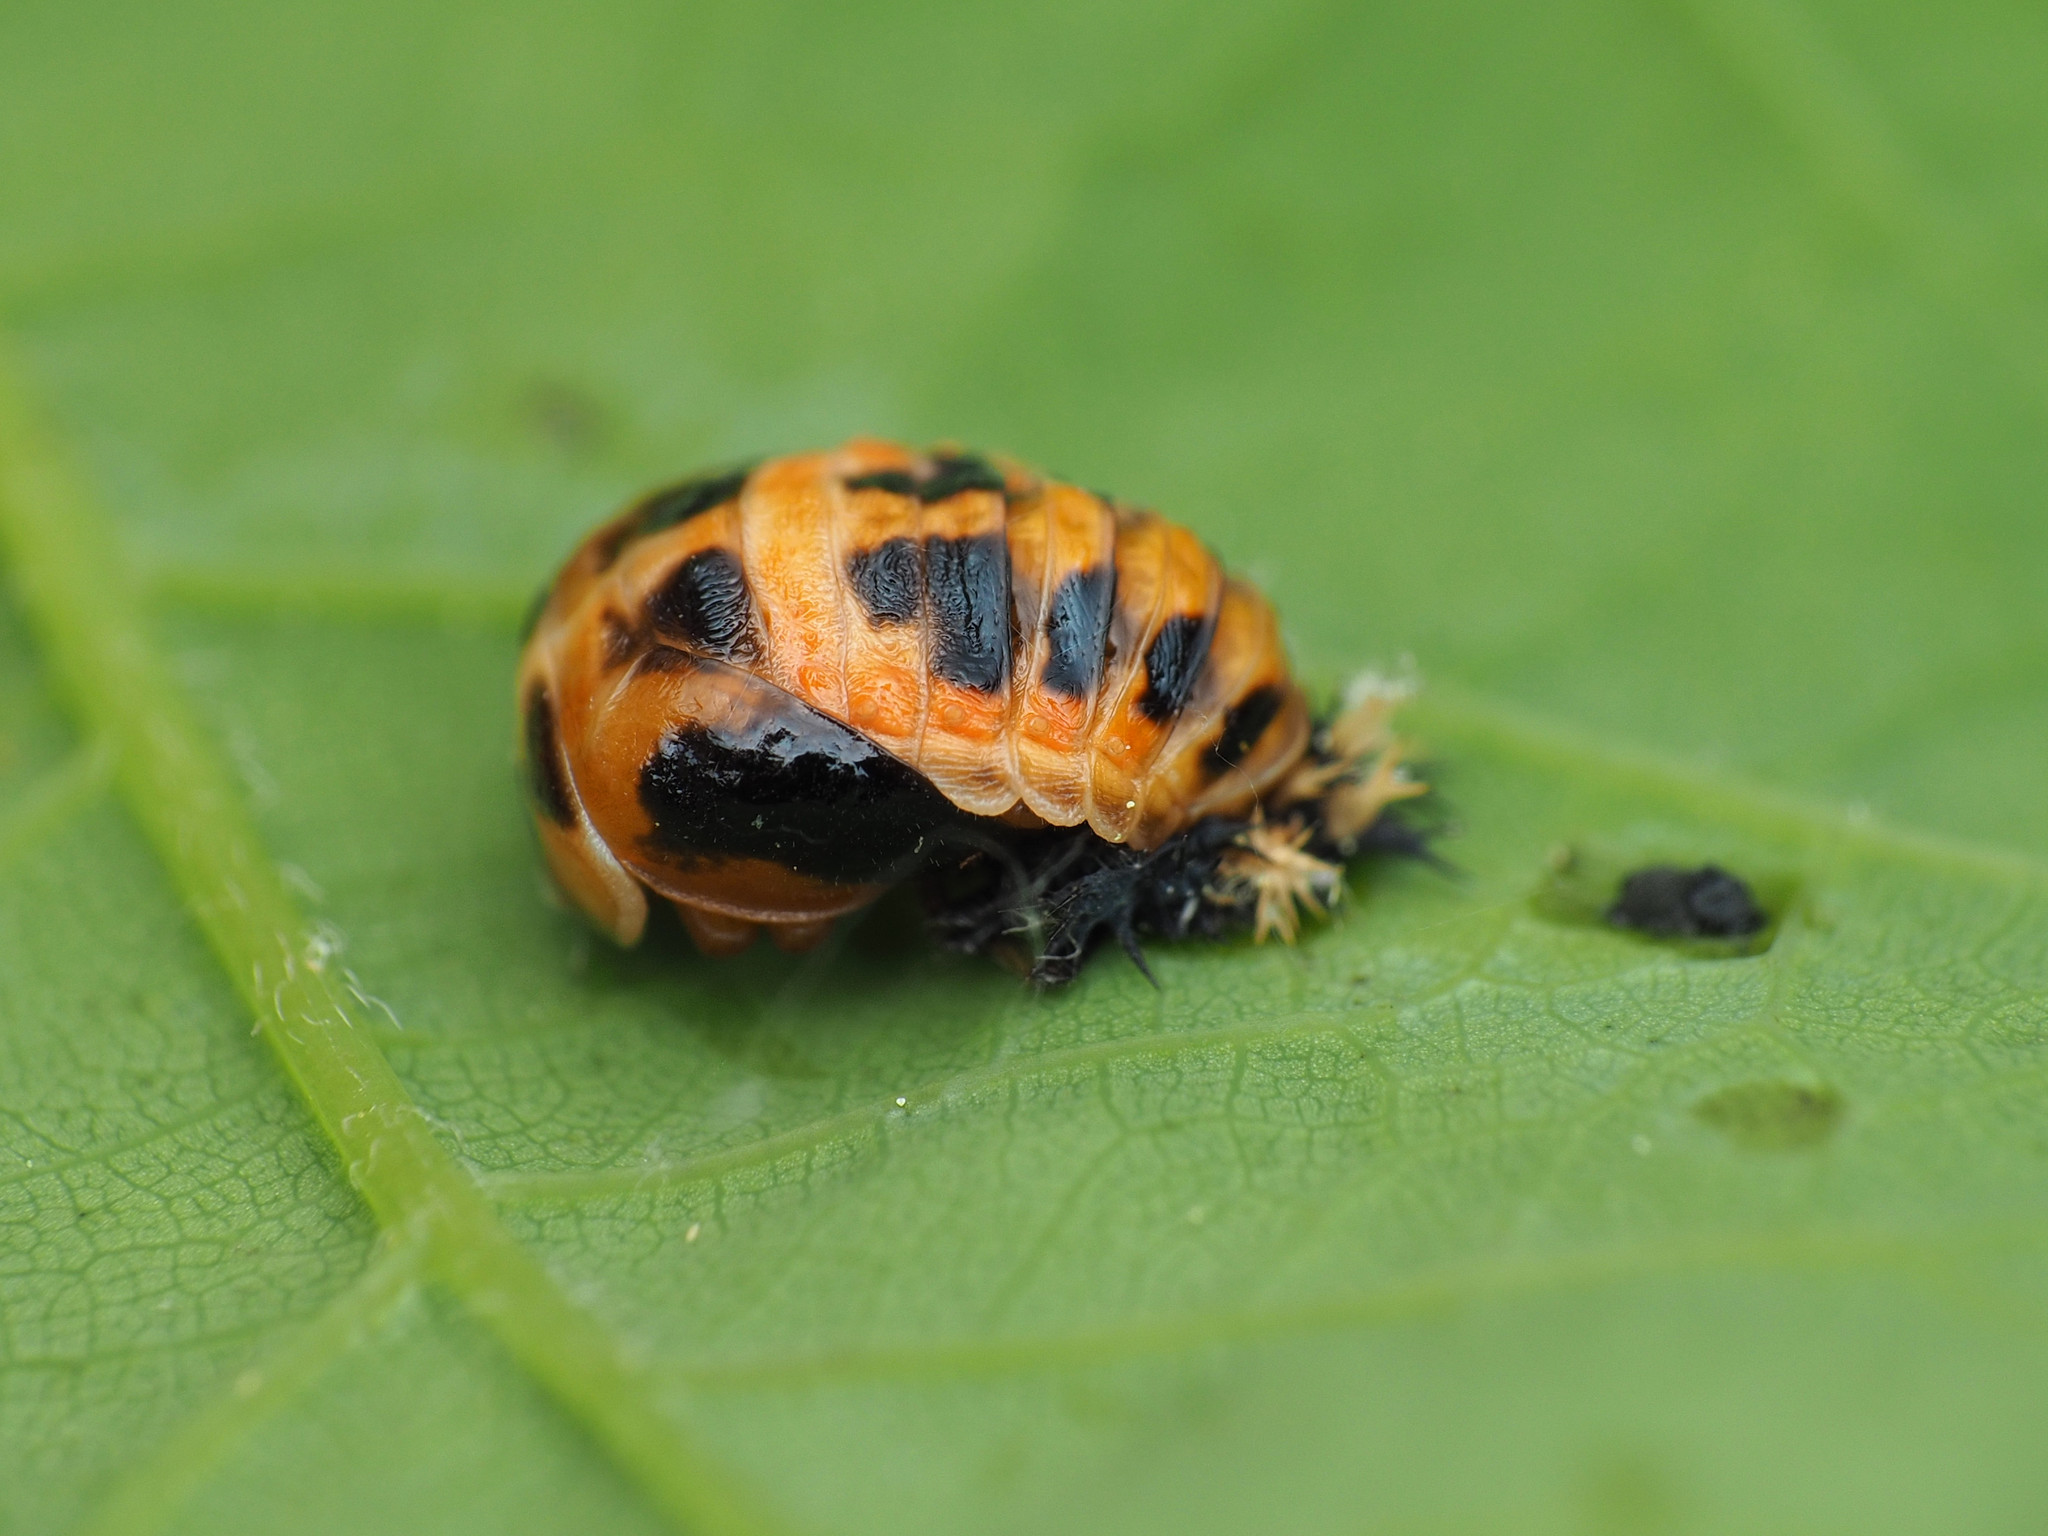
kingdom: Animalia
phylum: Arthropoda
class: Insecta
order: Coleoptera
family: Coccinellidae
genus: Harmonia
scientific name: Harmonia axyridis
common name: Harlequin ladybird
